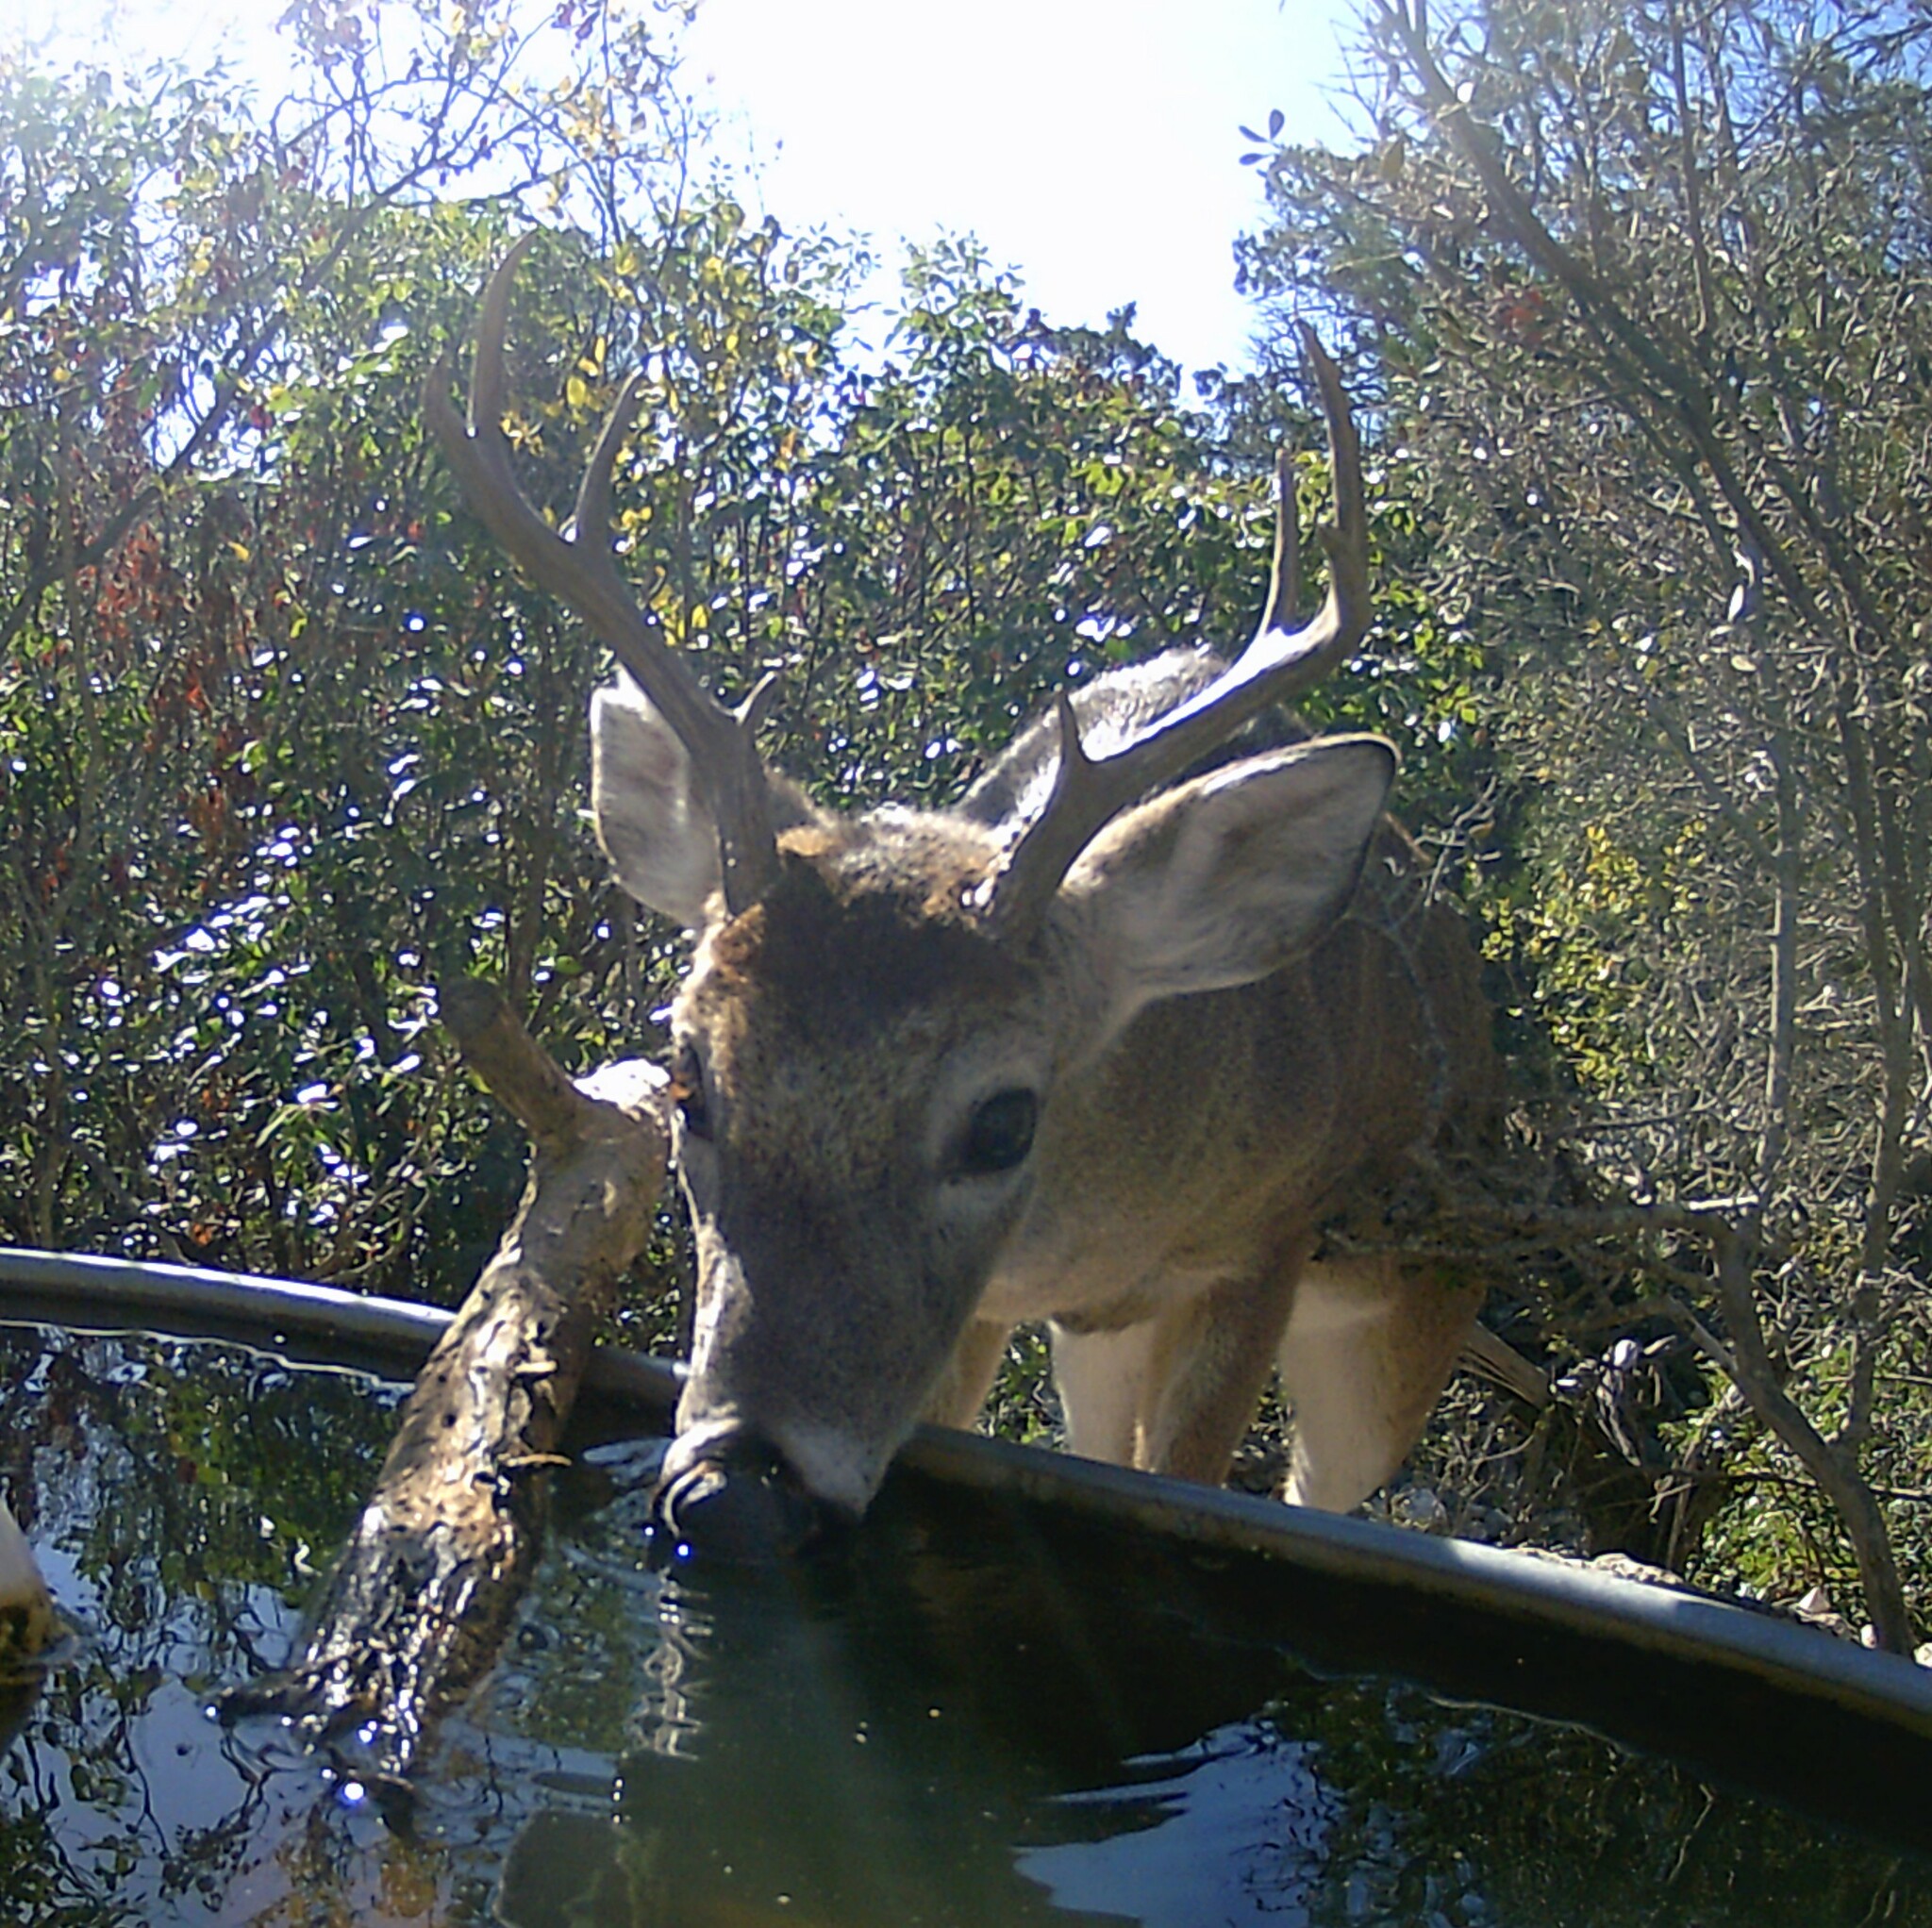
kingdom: Animalia
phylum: Chordata
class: Mammalia
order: Artiodactyla
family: Cervidae
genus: Odocoileus
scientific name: Odocoileus virginianus
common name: White-tailed deer
